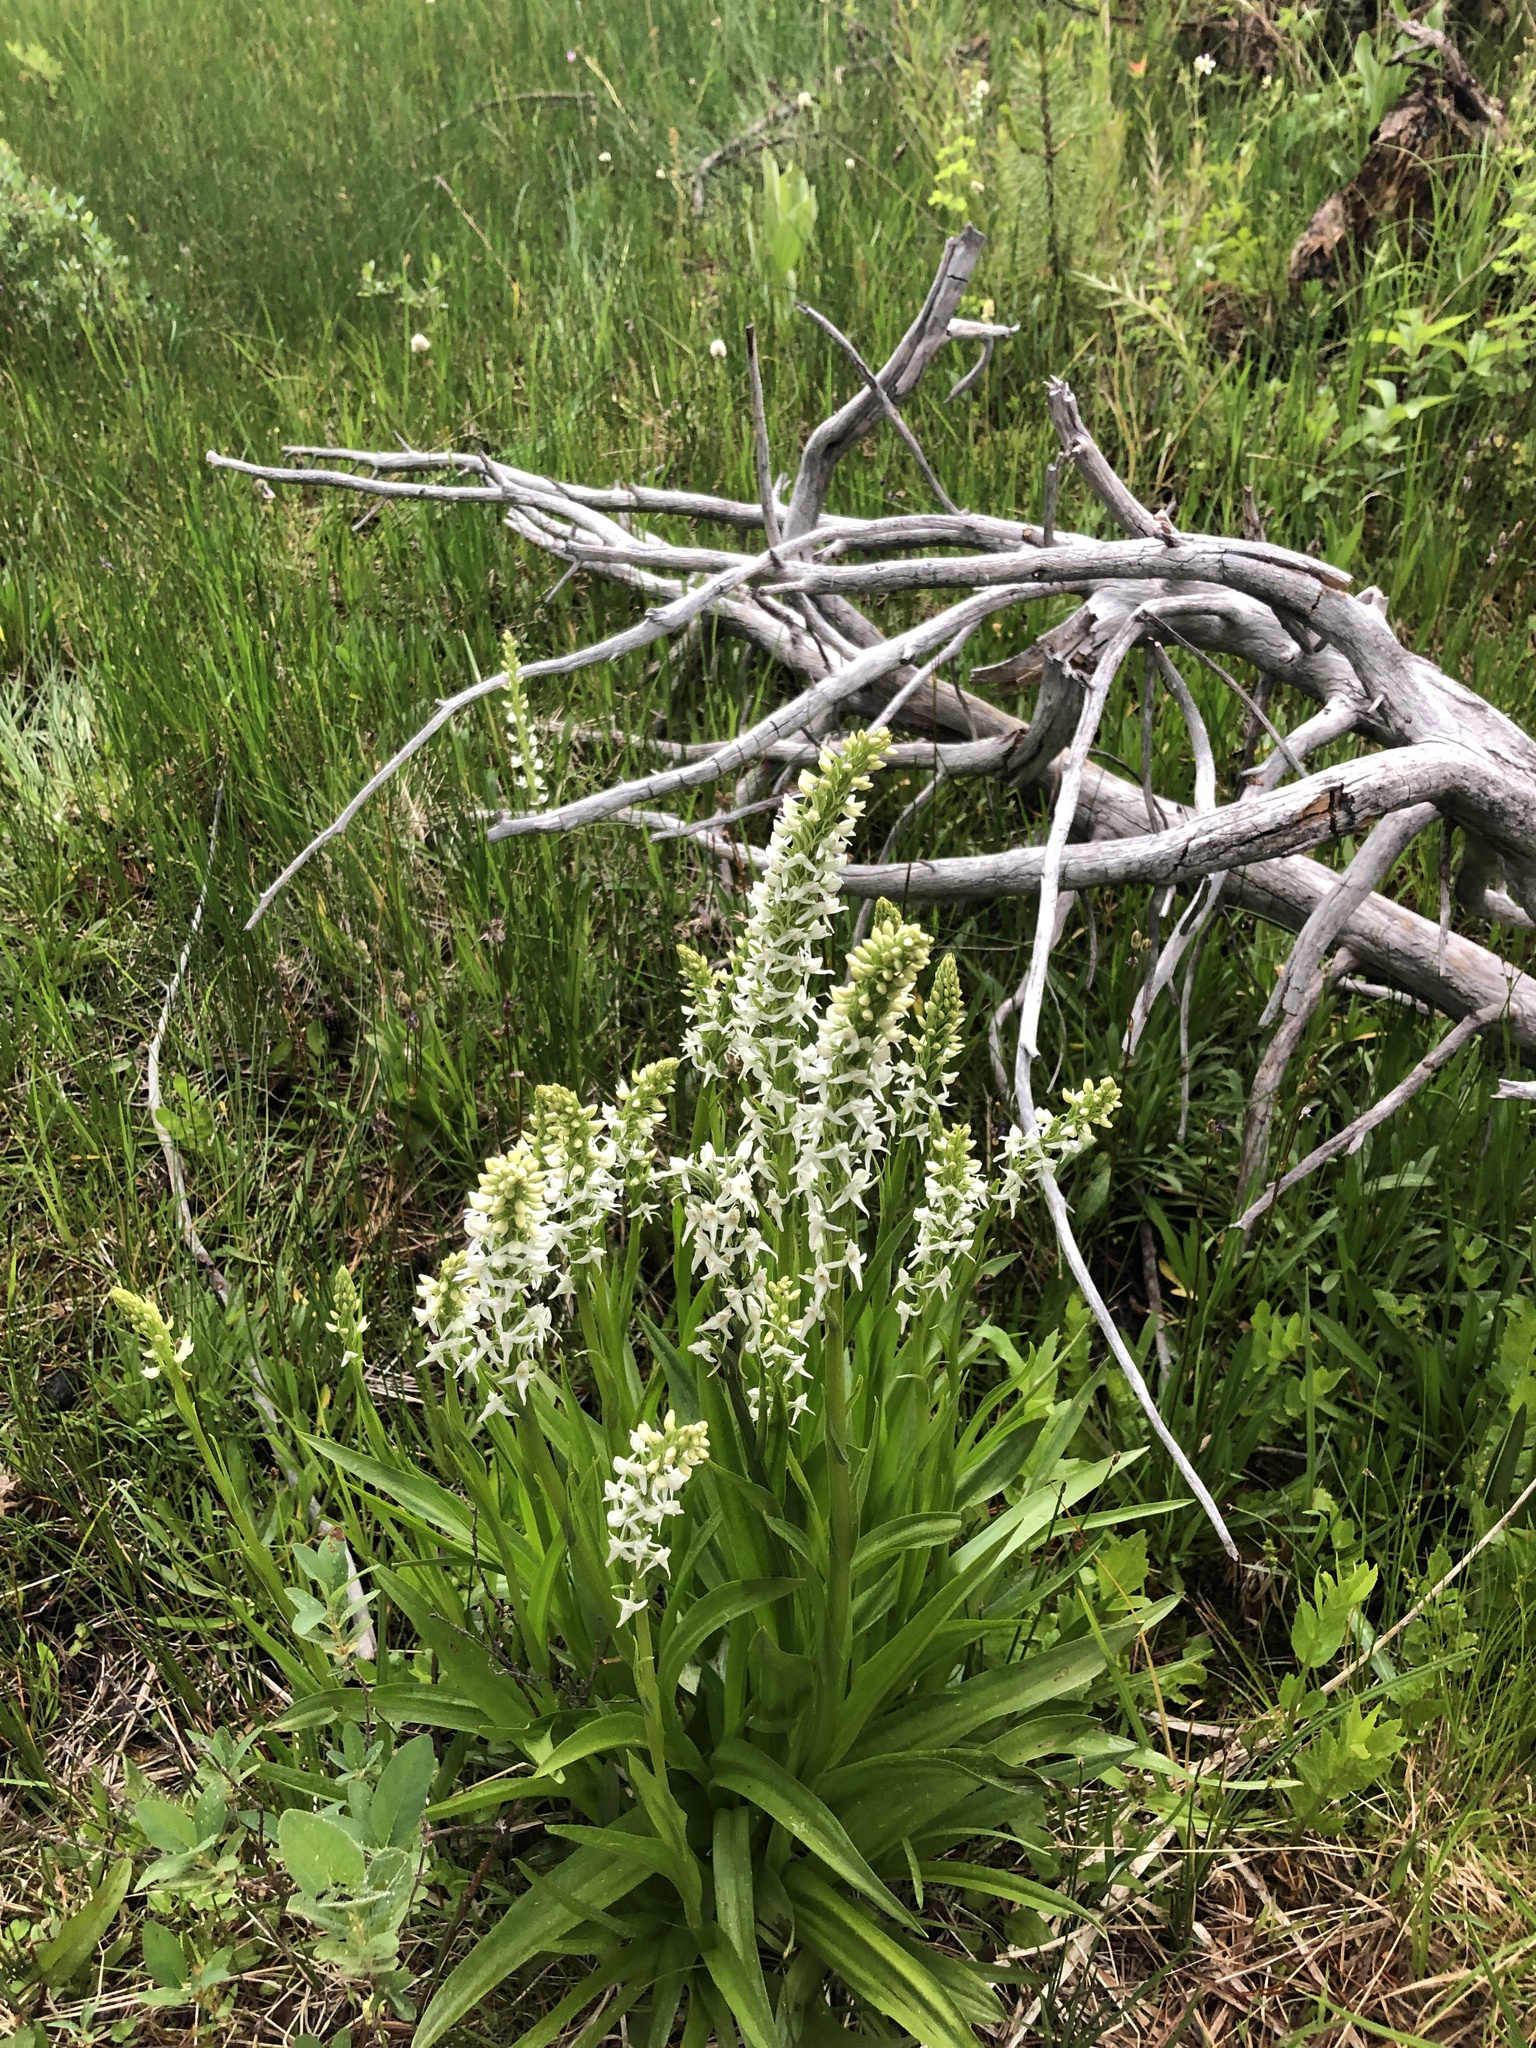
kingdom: Plantae
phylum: Tracheophyta
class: Liliopsida
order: Asparagales
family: Orchidaceae
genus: Platanthera
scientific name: Platanthera dilatata
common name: Bog candles
